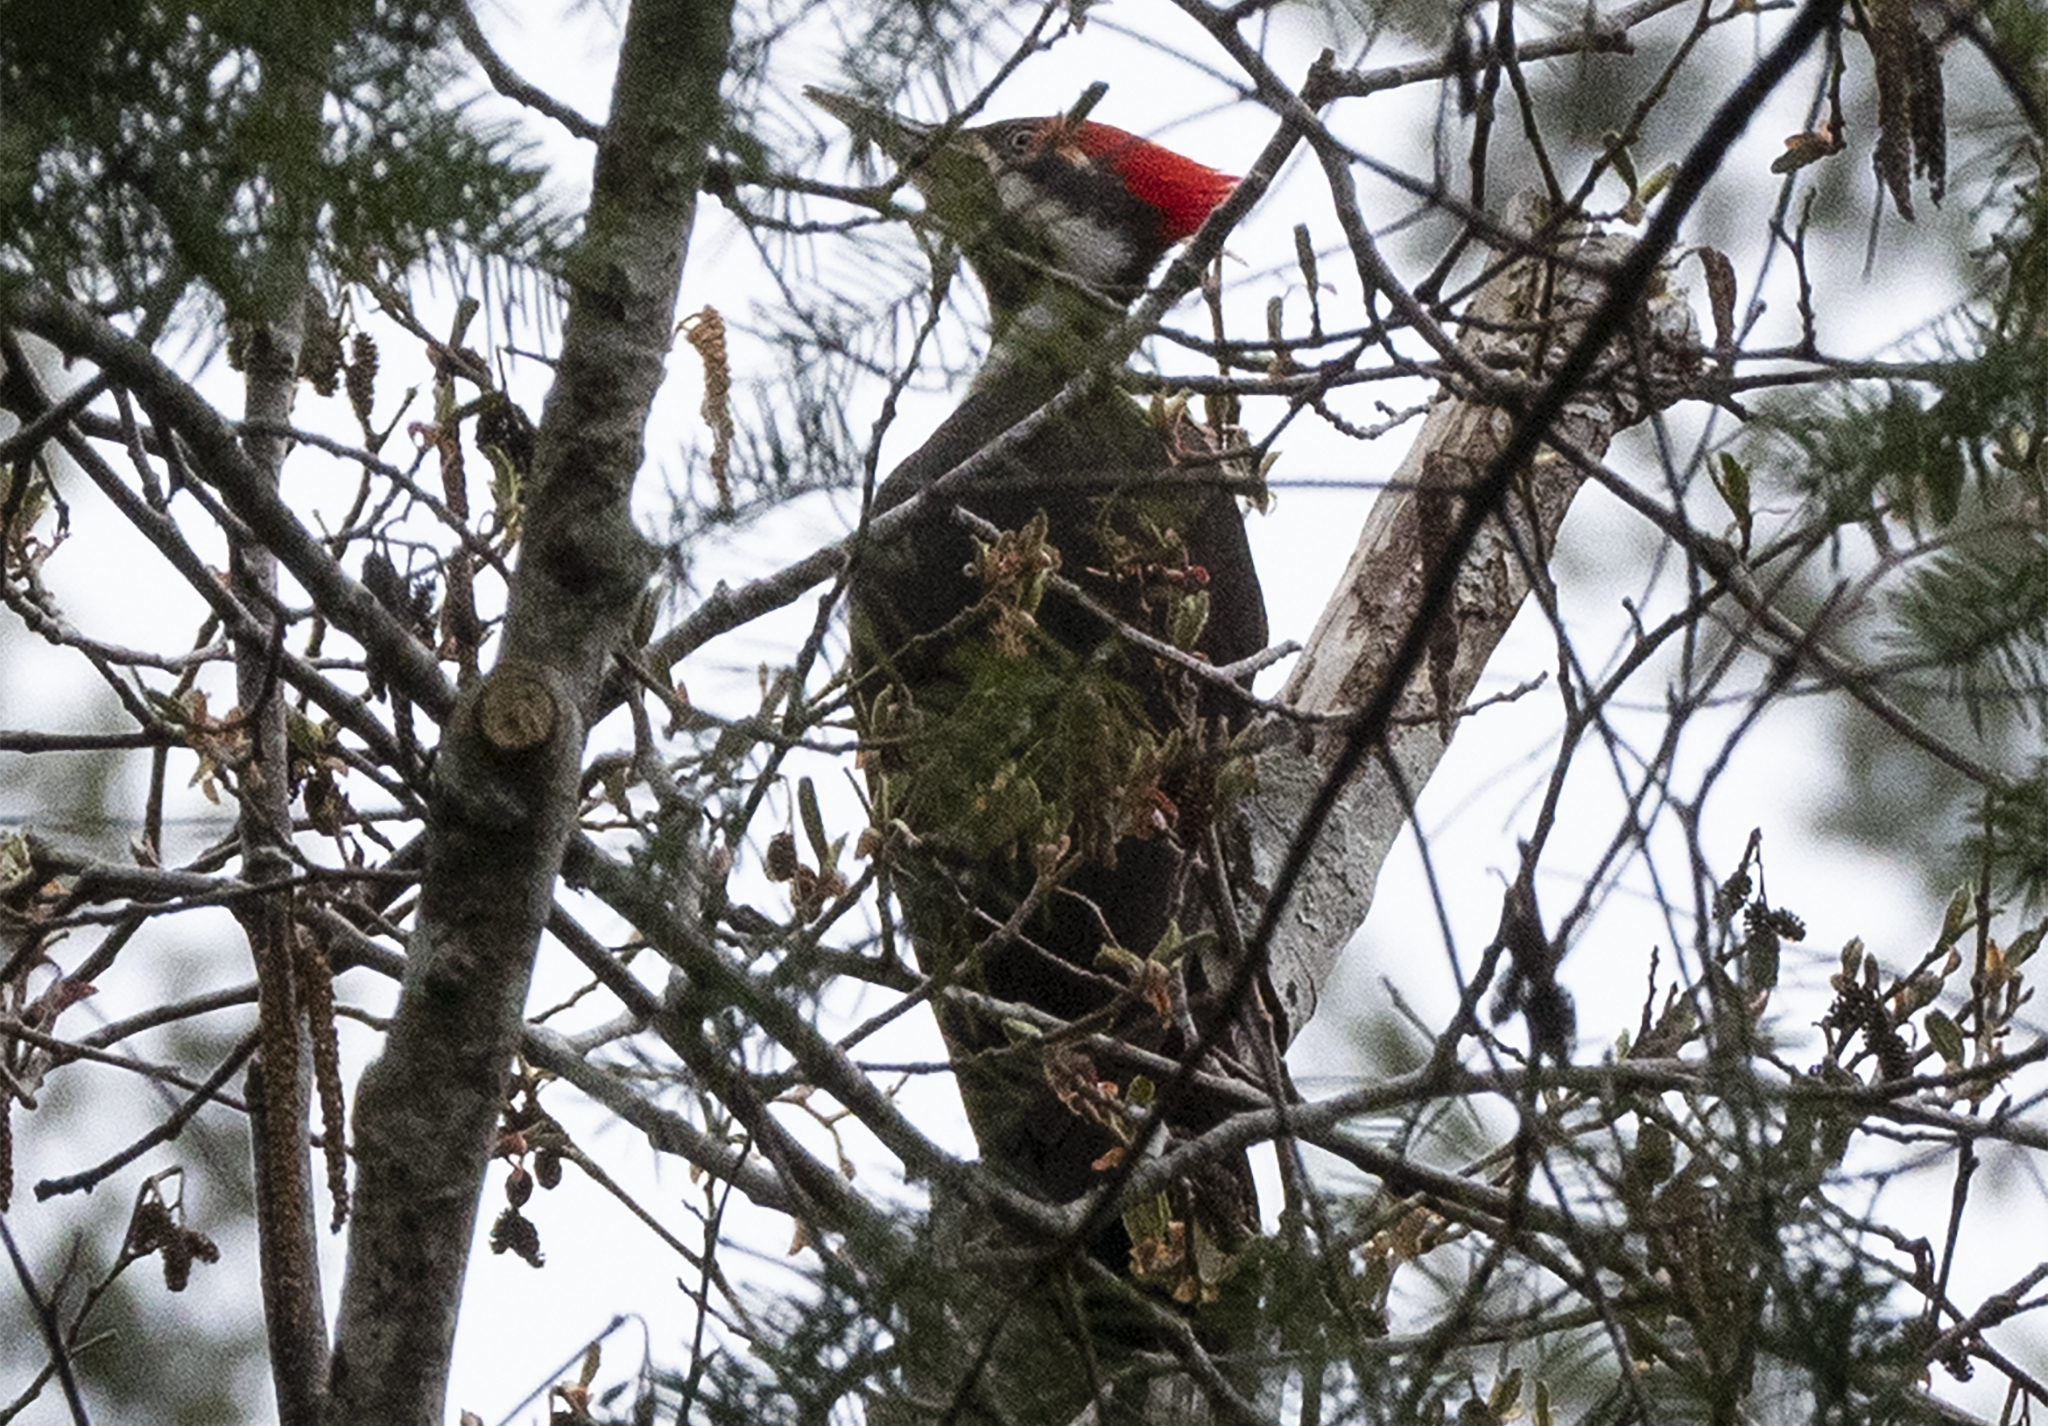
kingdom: Animalia
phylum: Chordata
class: Aves
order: Piciformes
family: Picidae
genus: Dryocopus
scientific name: Dryocopus pileatus
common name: Pileated woodpecker
